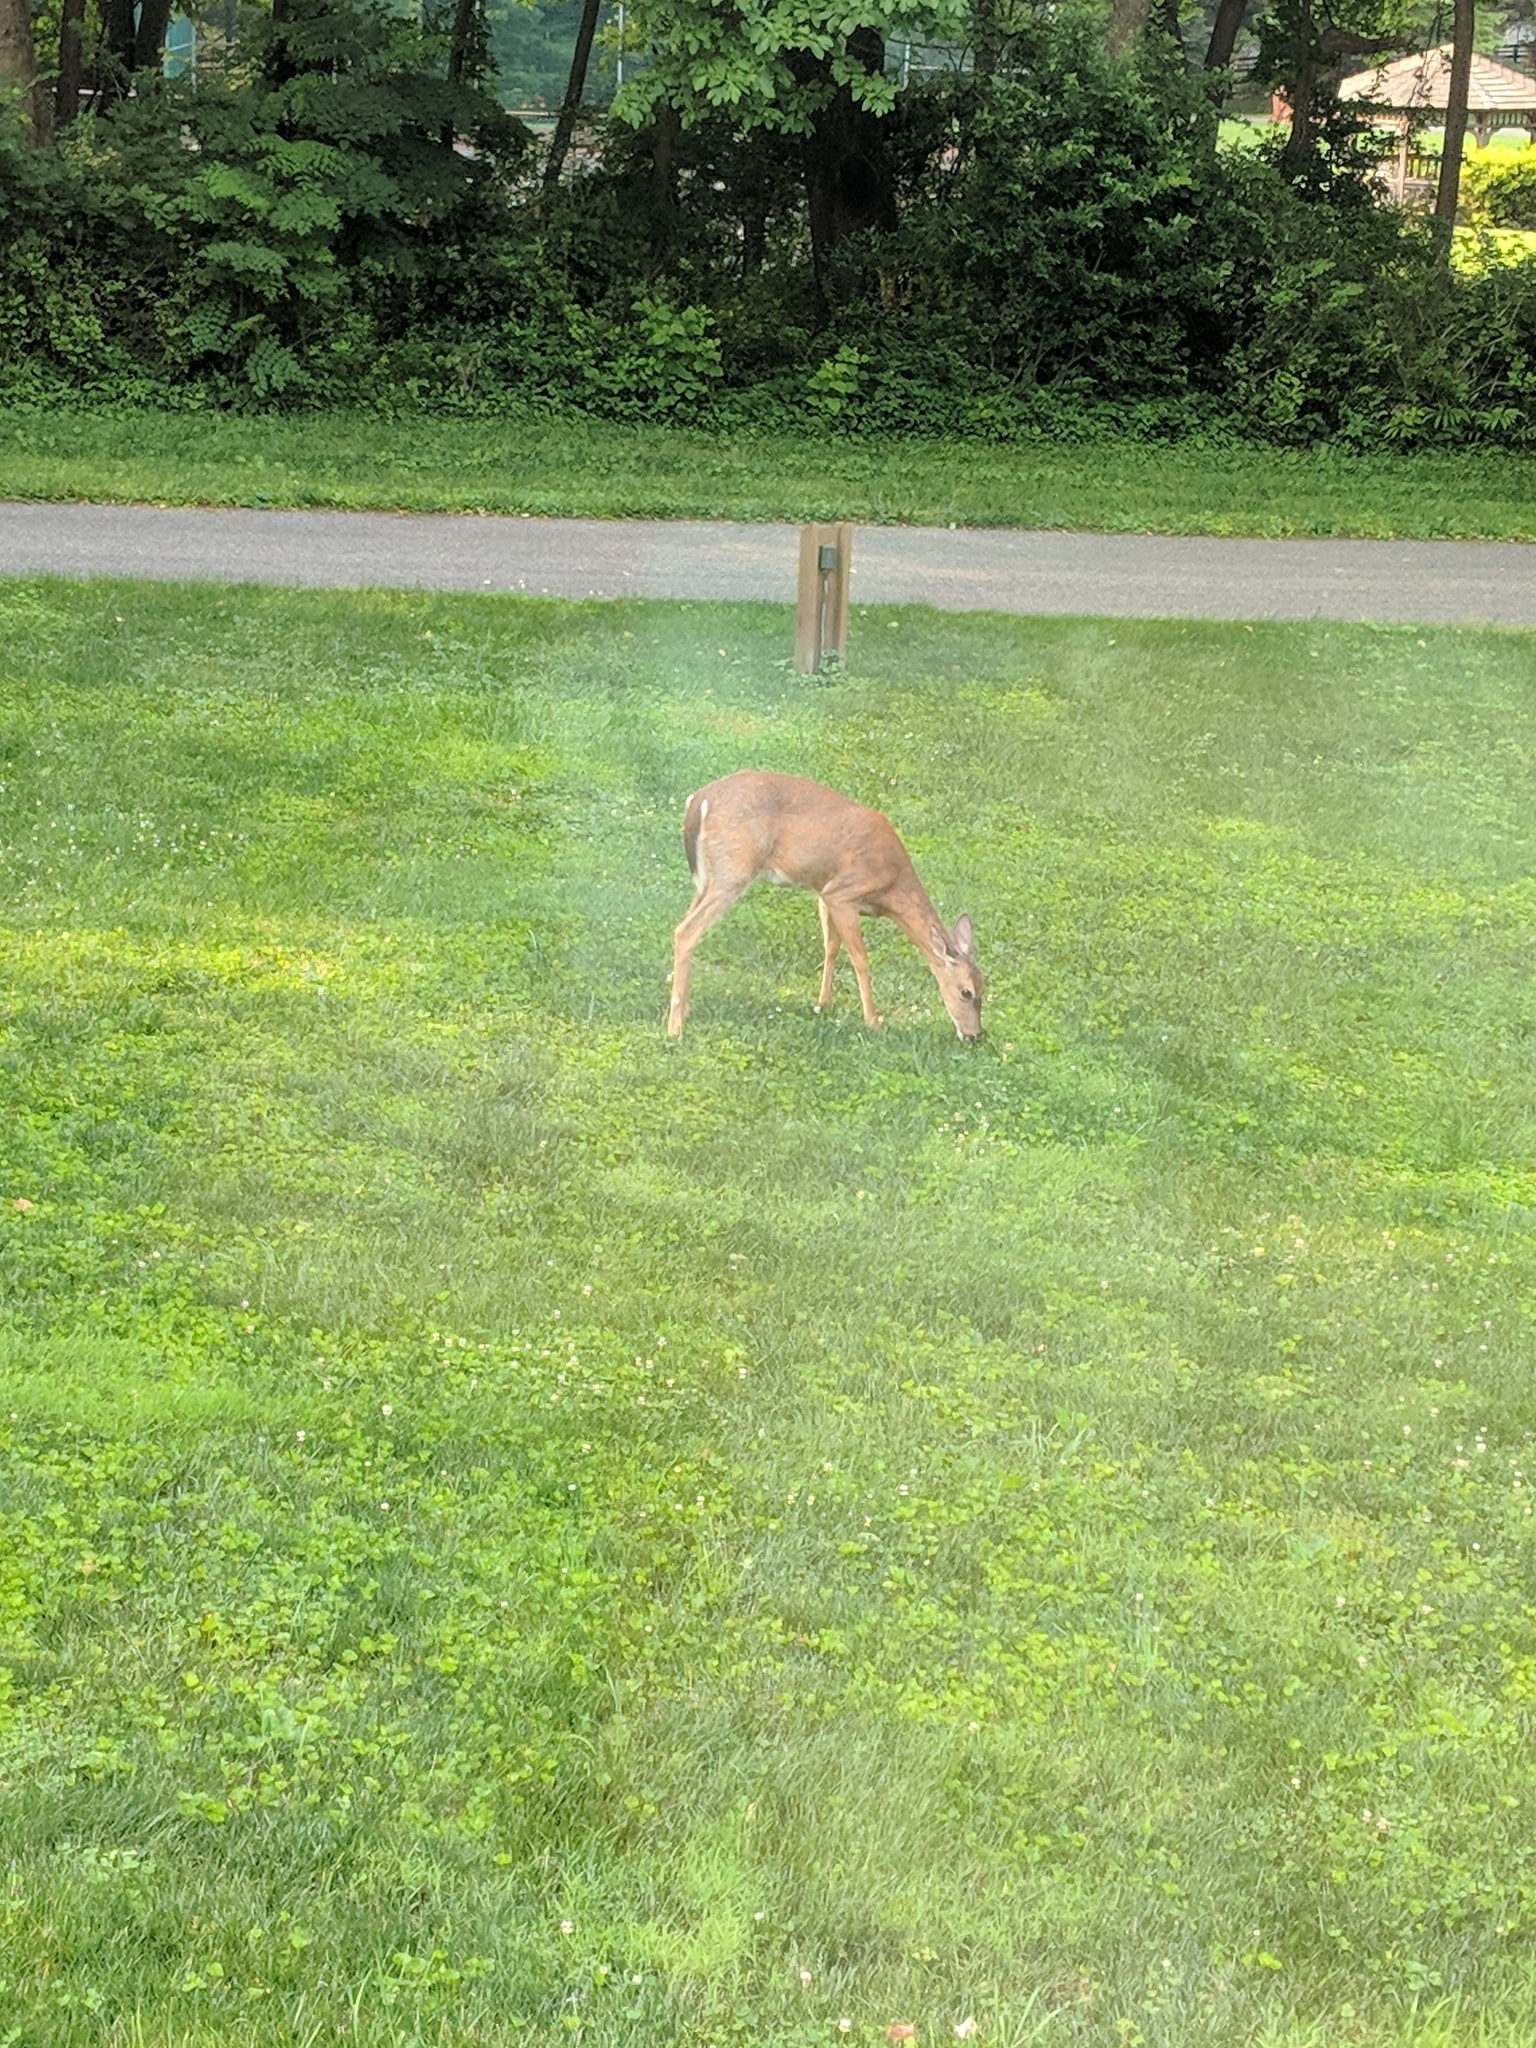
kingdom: Animalia
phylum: Chordata
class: Mammalia
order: Artiodactyla
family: Cervidae
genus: Odocoileus
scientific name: Odocoileus virginianus
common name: White-tailed deer
